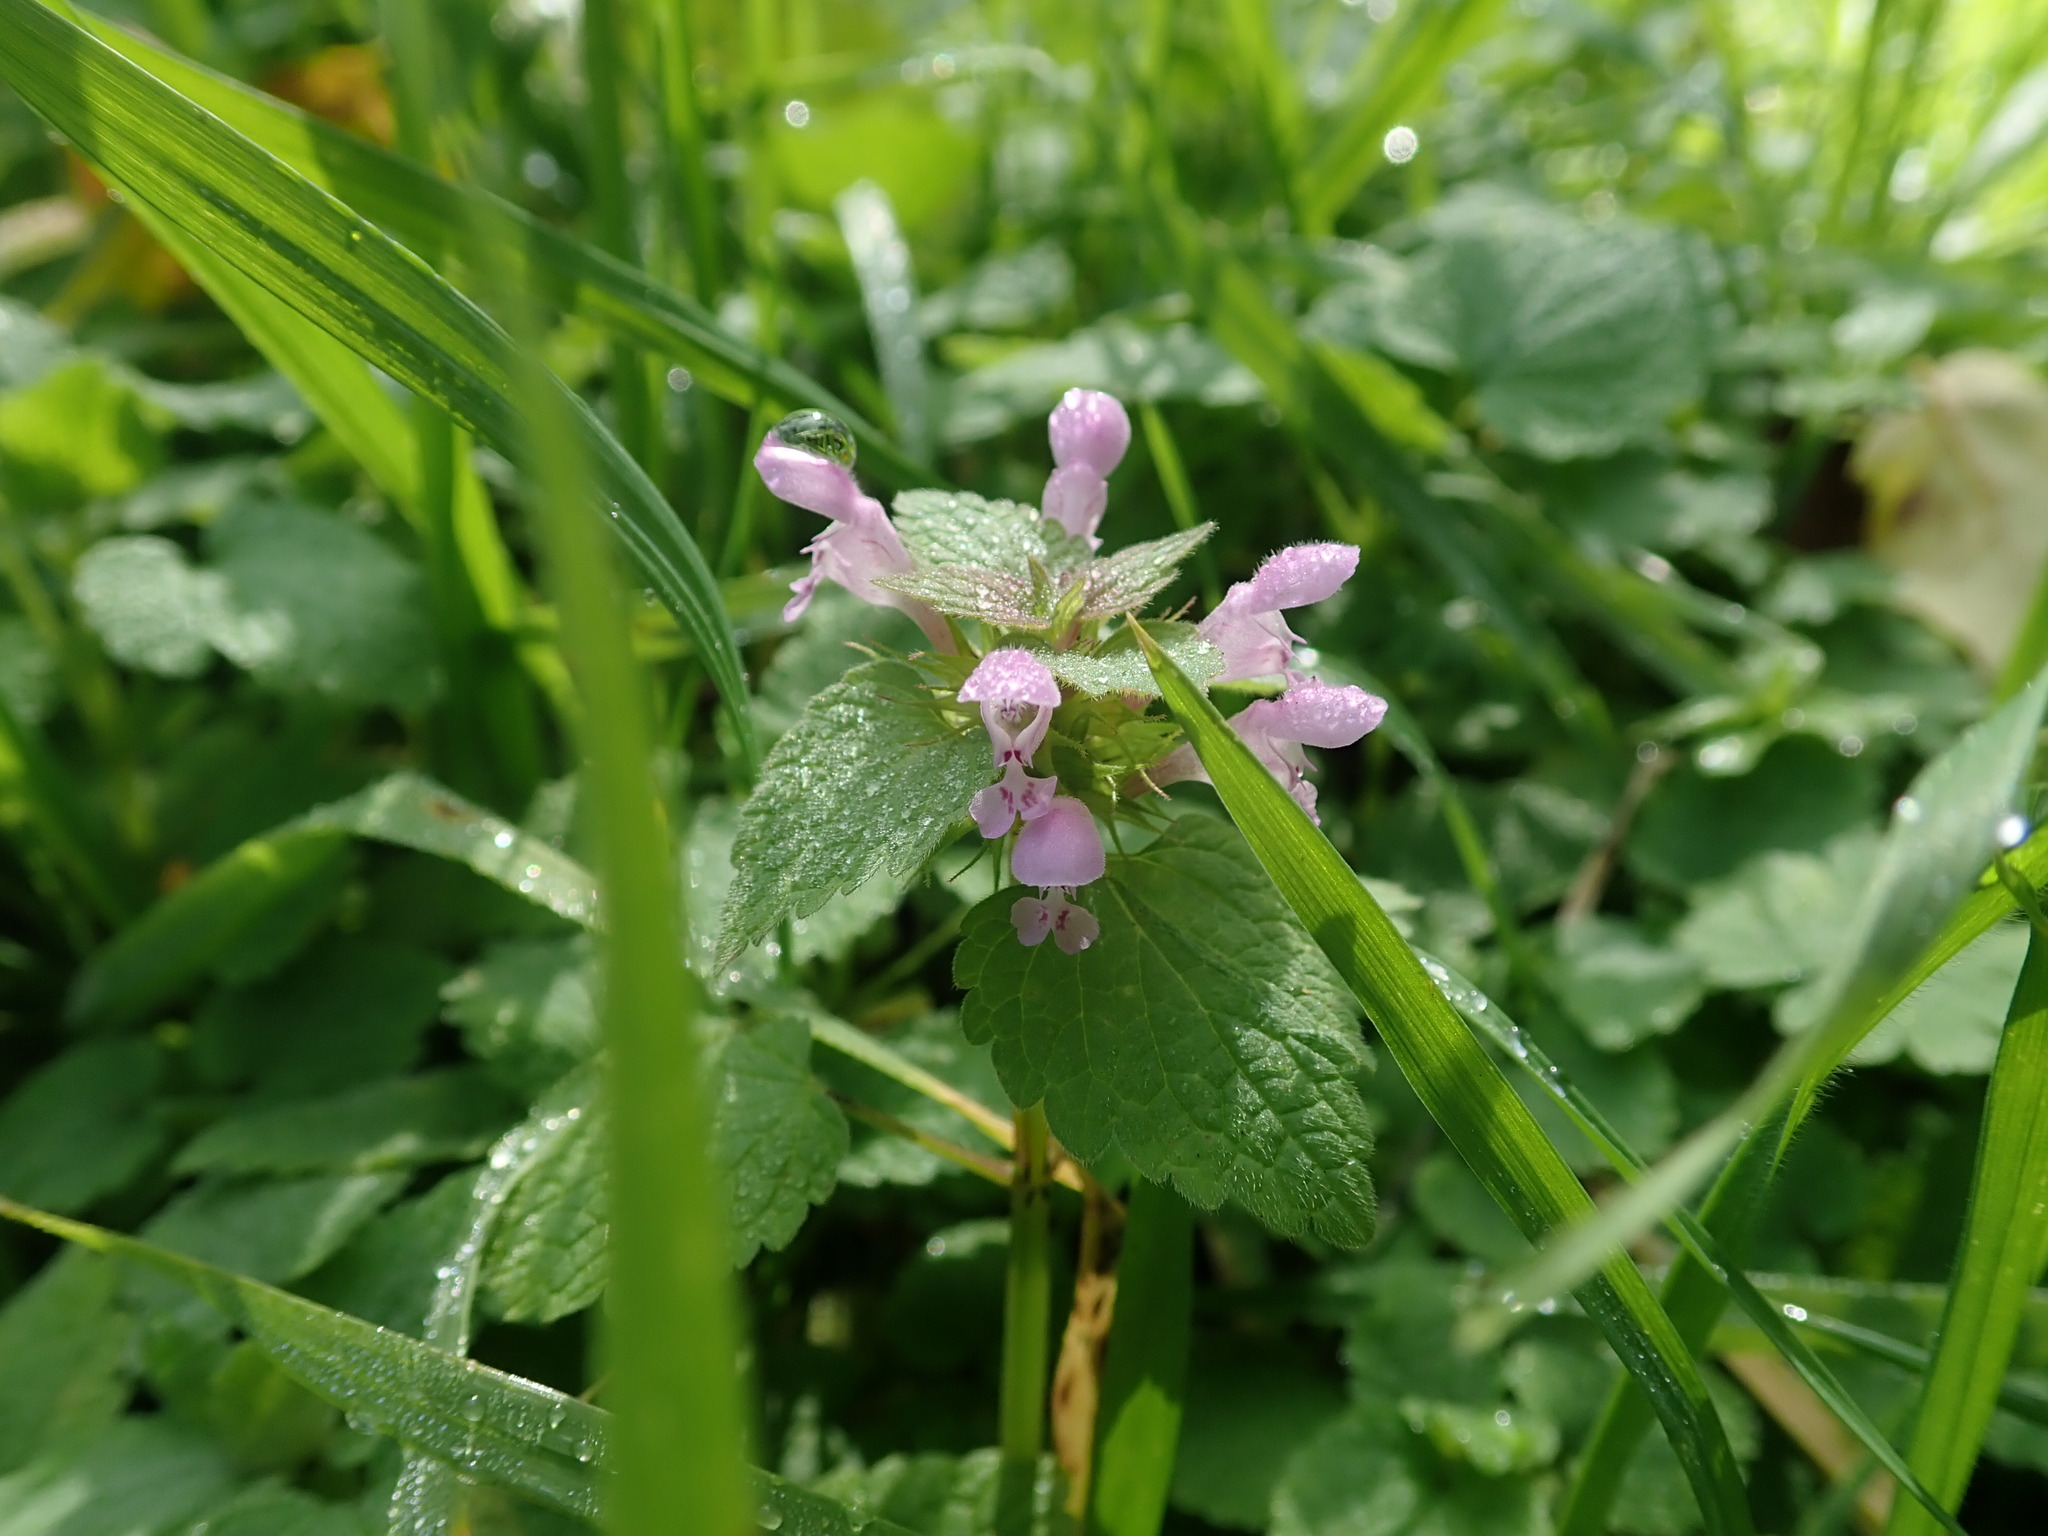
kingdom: Plantae
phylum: Tracheophyta
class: Magnoliopsida
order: Lamiales
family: Lamiaceae
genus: Lamium
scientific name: Lamium purpureum
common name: Red dead-nettle
